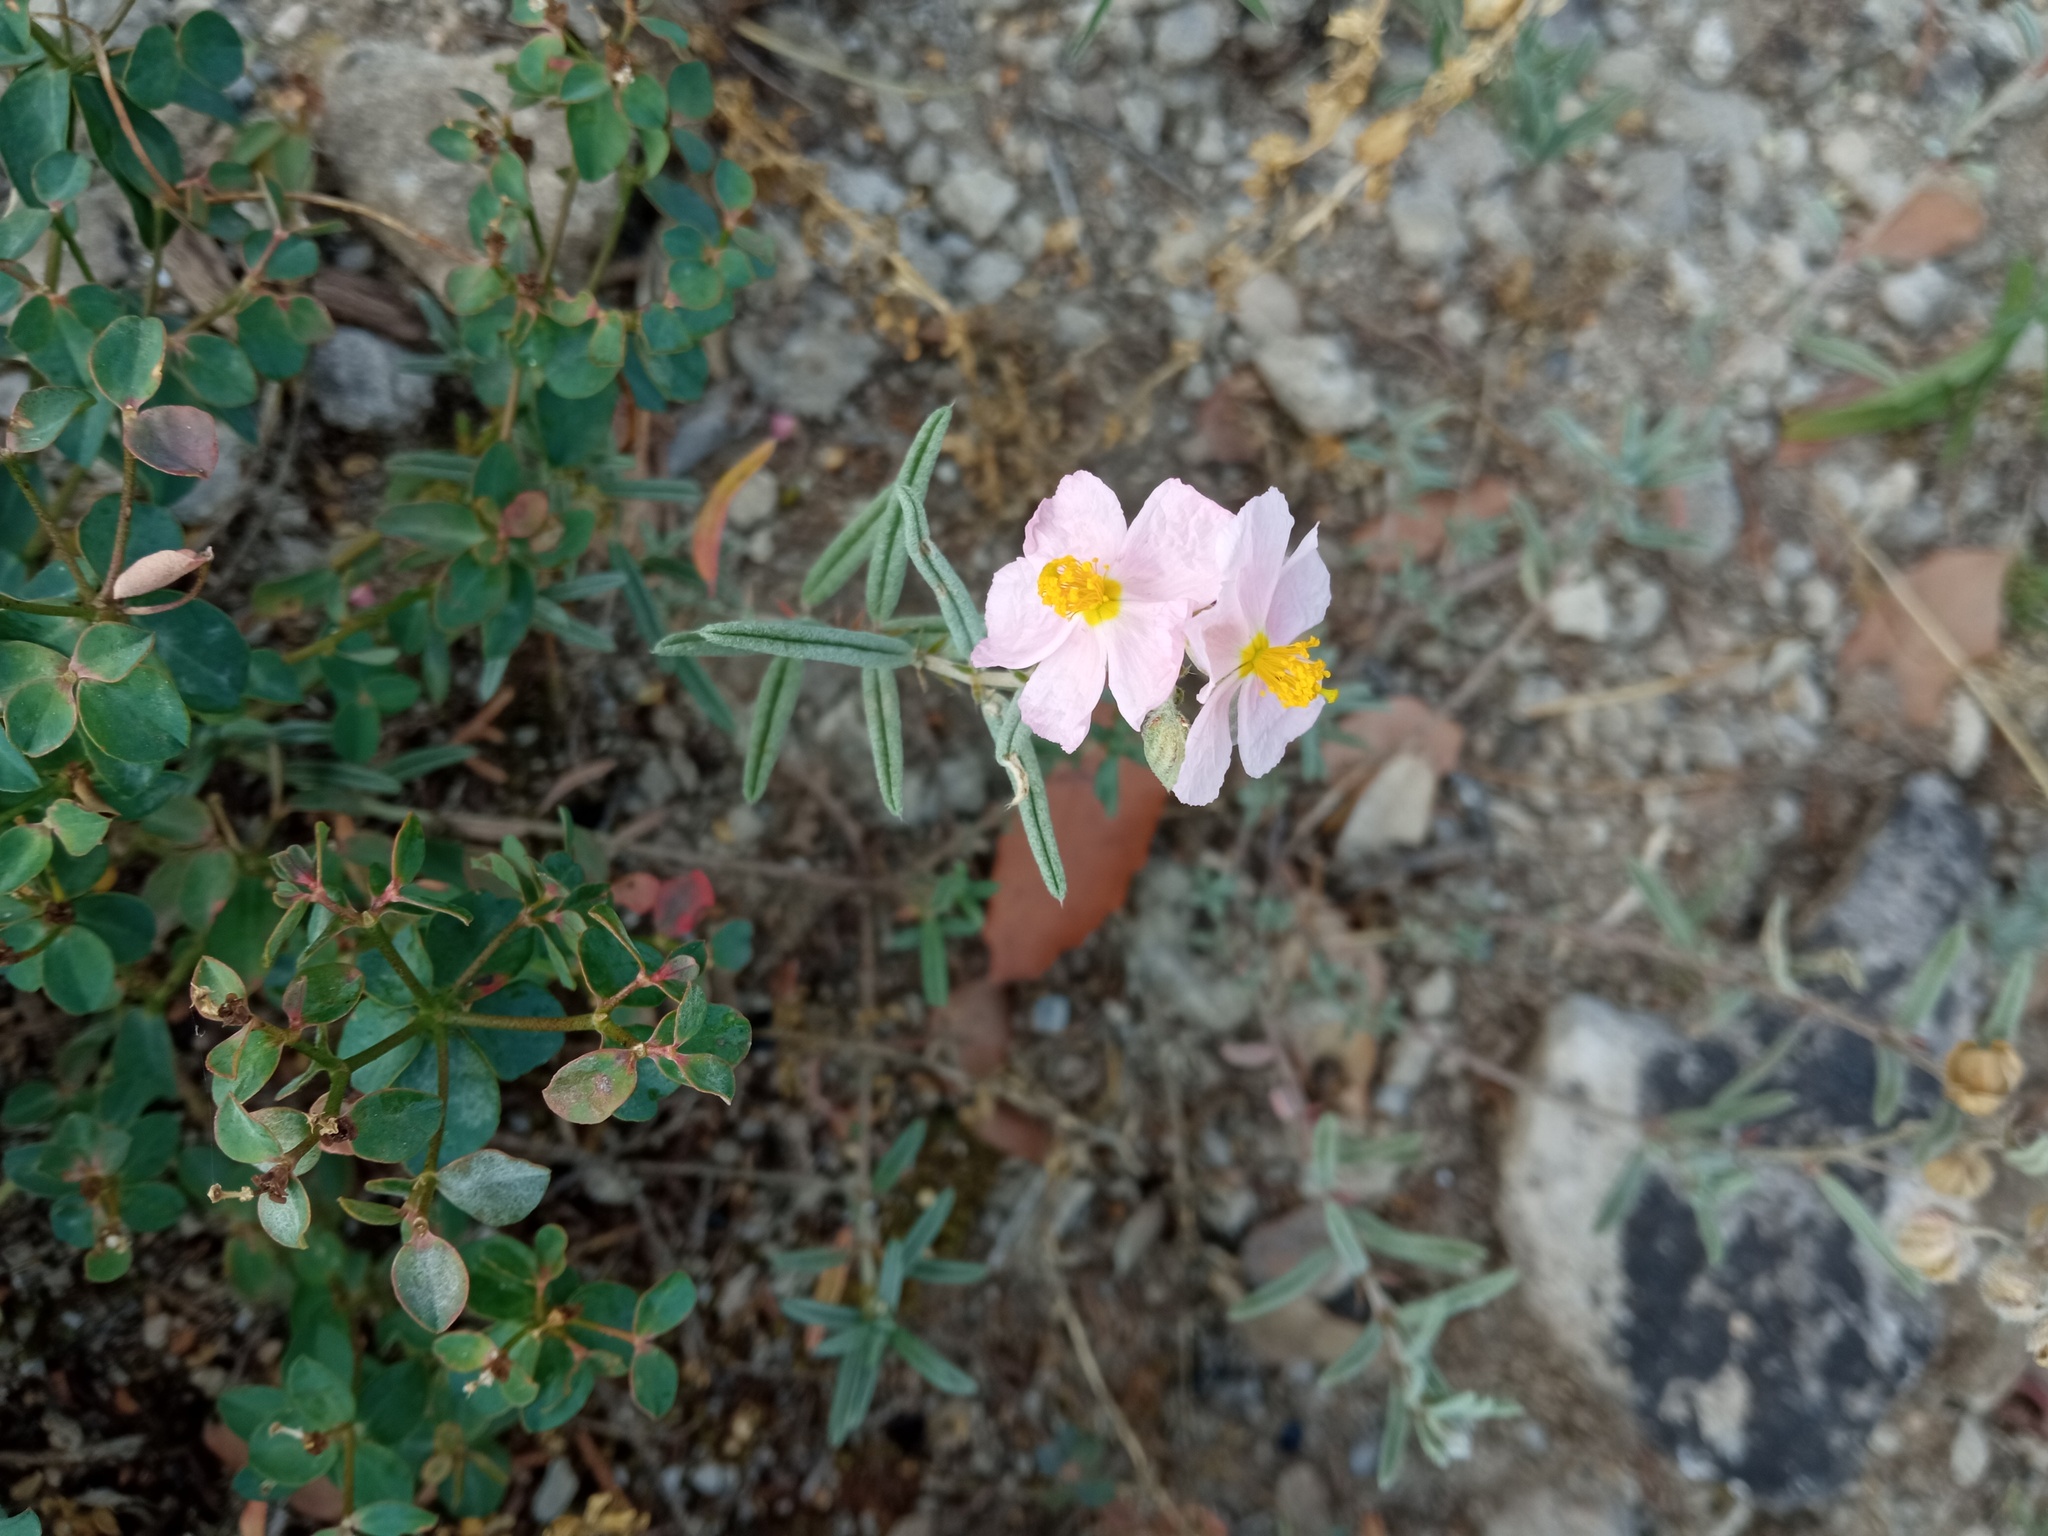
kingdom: Plantae
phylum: Tracheophyta
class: Magnoliopsida
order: Malvales
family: Cistaceae
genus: Helianthemum
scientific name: Helianthemum apenninum
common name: White rock-rose
